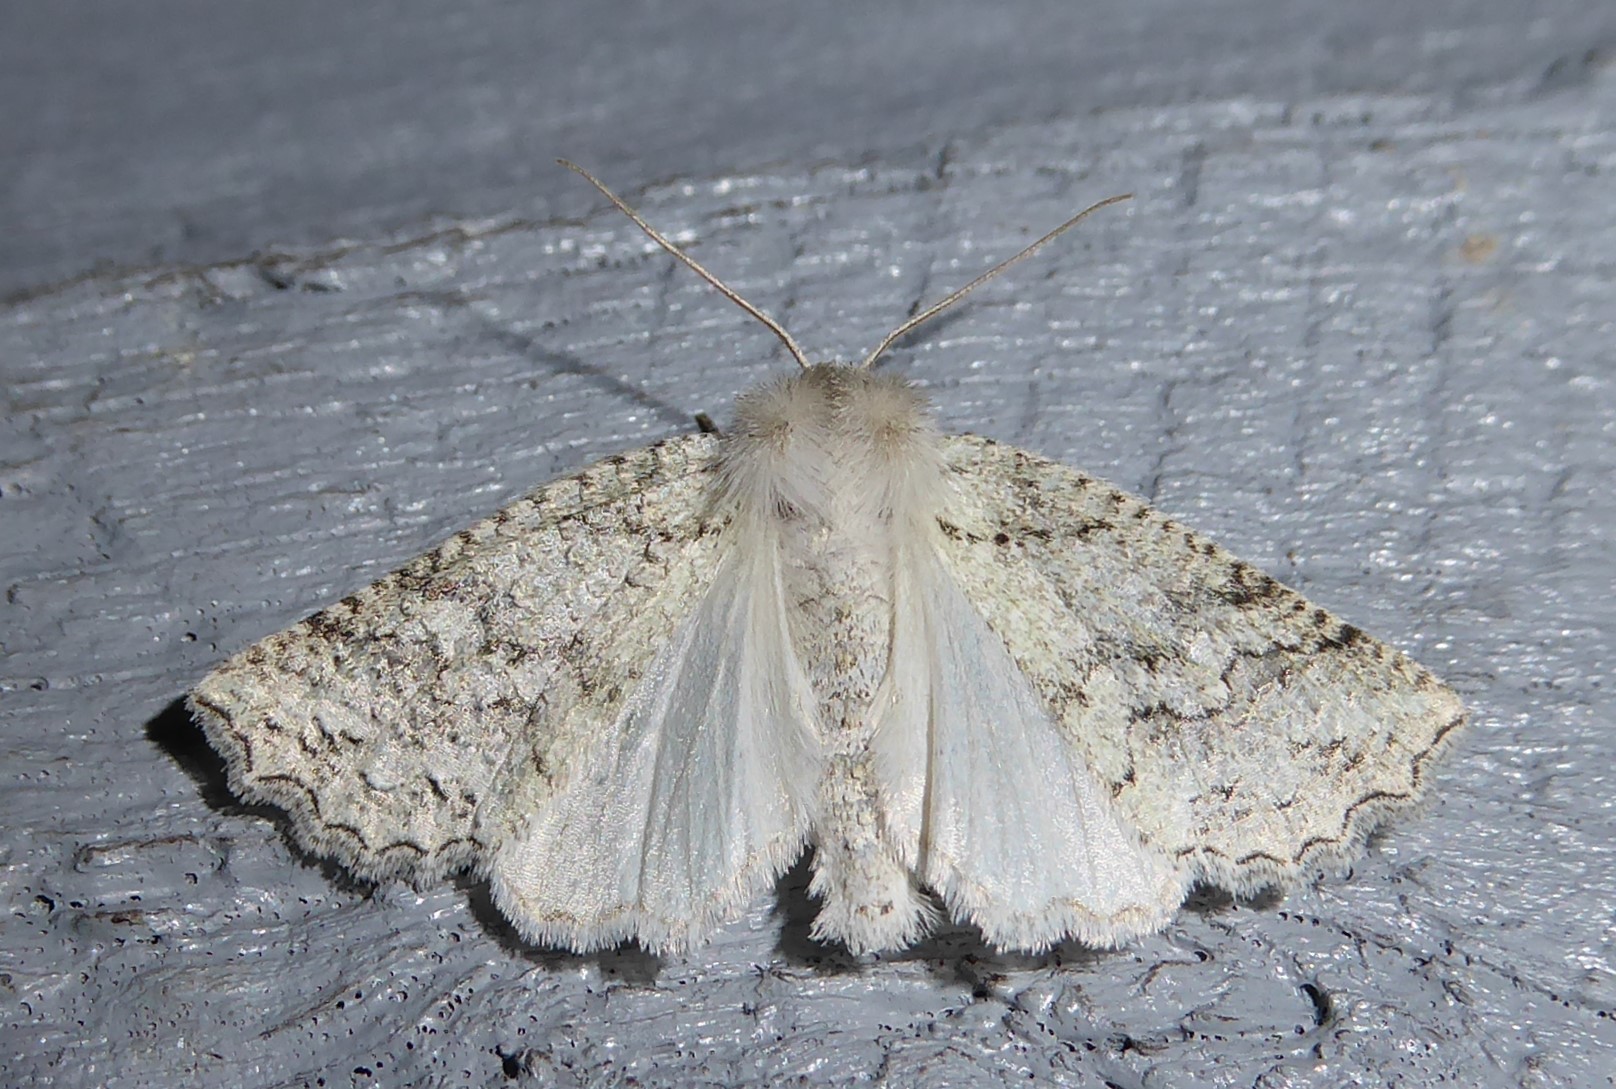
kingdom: Animalia
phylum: Arthropoda
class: Insecta
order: Lepidoptera
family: Geometridae
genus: Declana
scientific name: Declana floccosa
